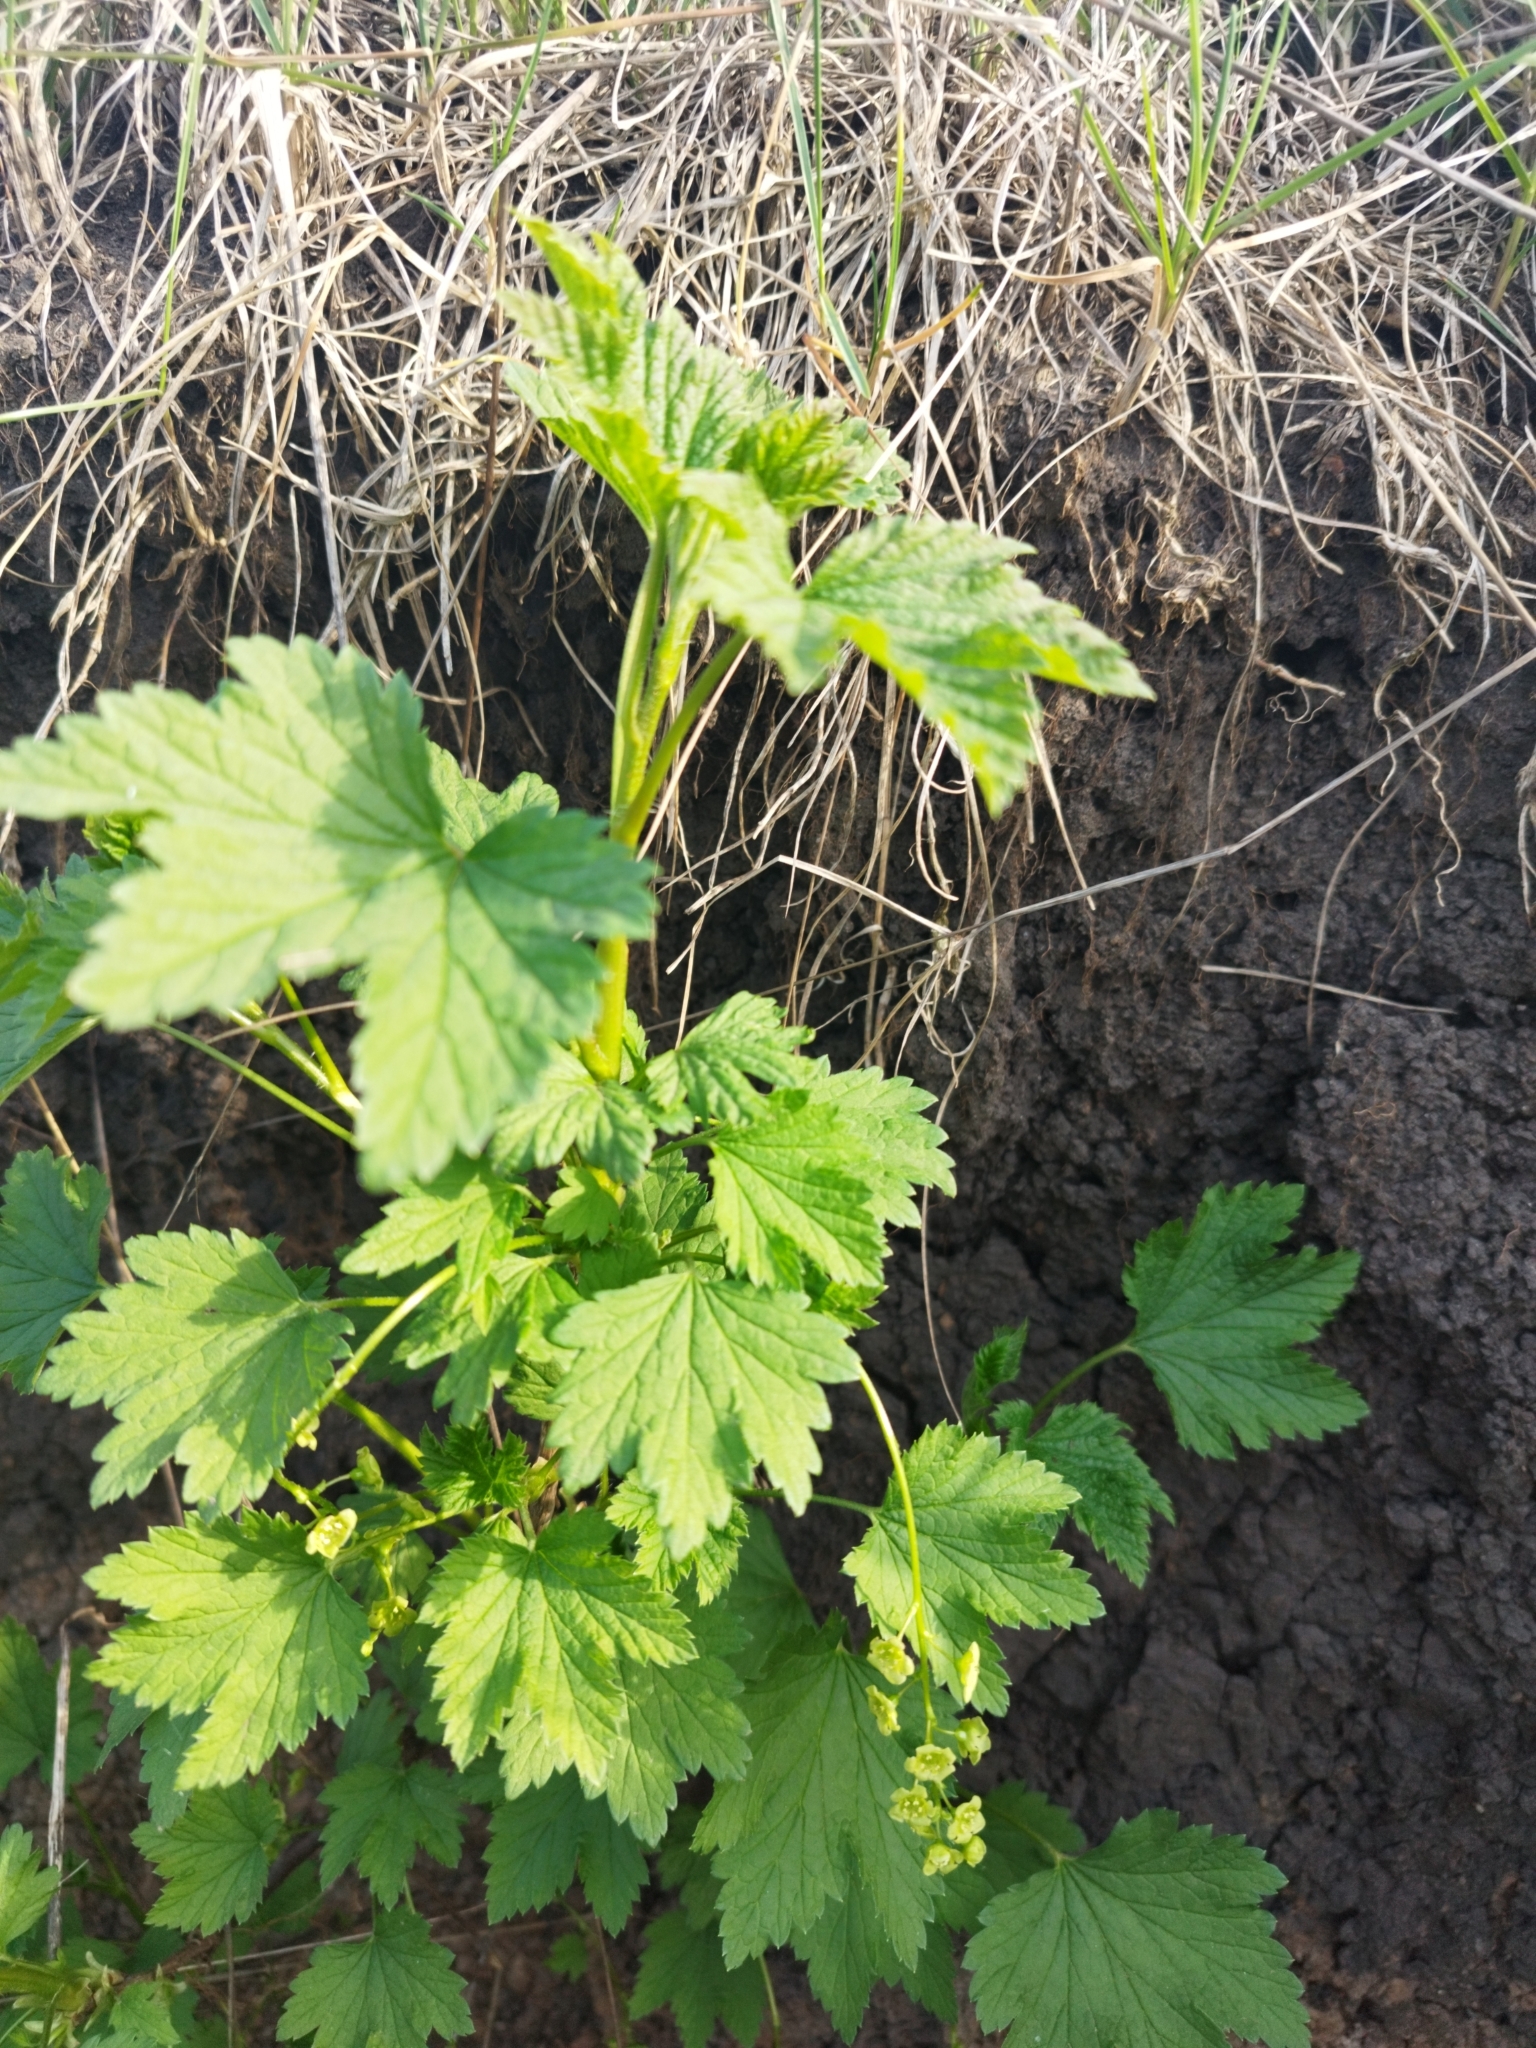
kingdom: Plantae
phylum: Tracheophyta
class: Magnoliopsida
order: Saxifragales
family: Grossulariaceae
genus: Ribes
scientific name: Ribes nigrum
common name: Black currant
